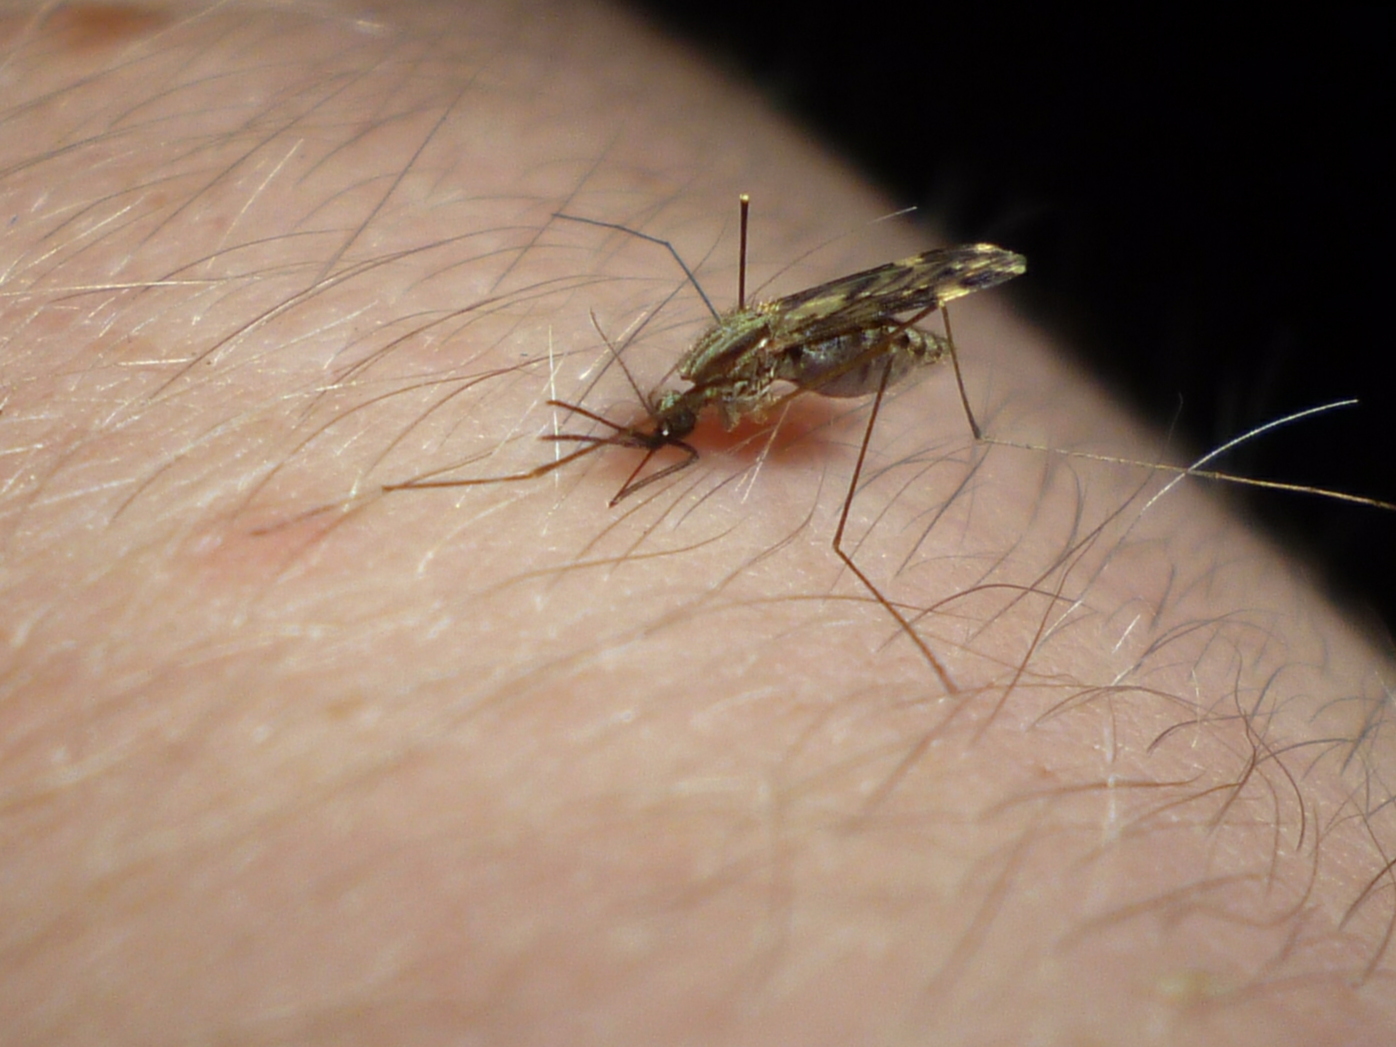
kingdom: Animalia
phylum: Arthropoda
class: Insecta
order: Diptera
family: Culicidae
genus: Anopheles
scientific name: Anopheles punctipennis
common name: Woodland malaria mosquito
